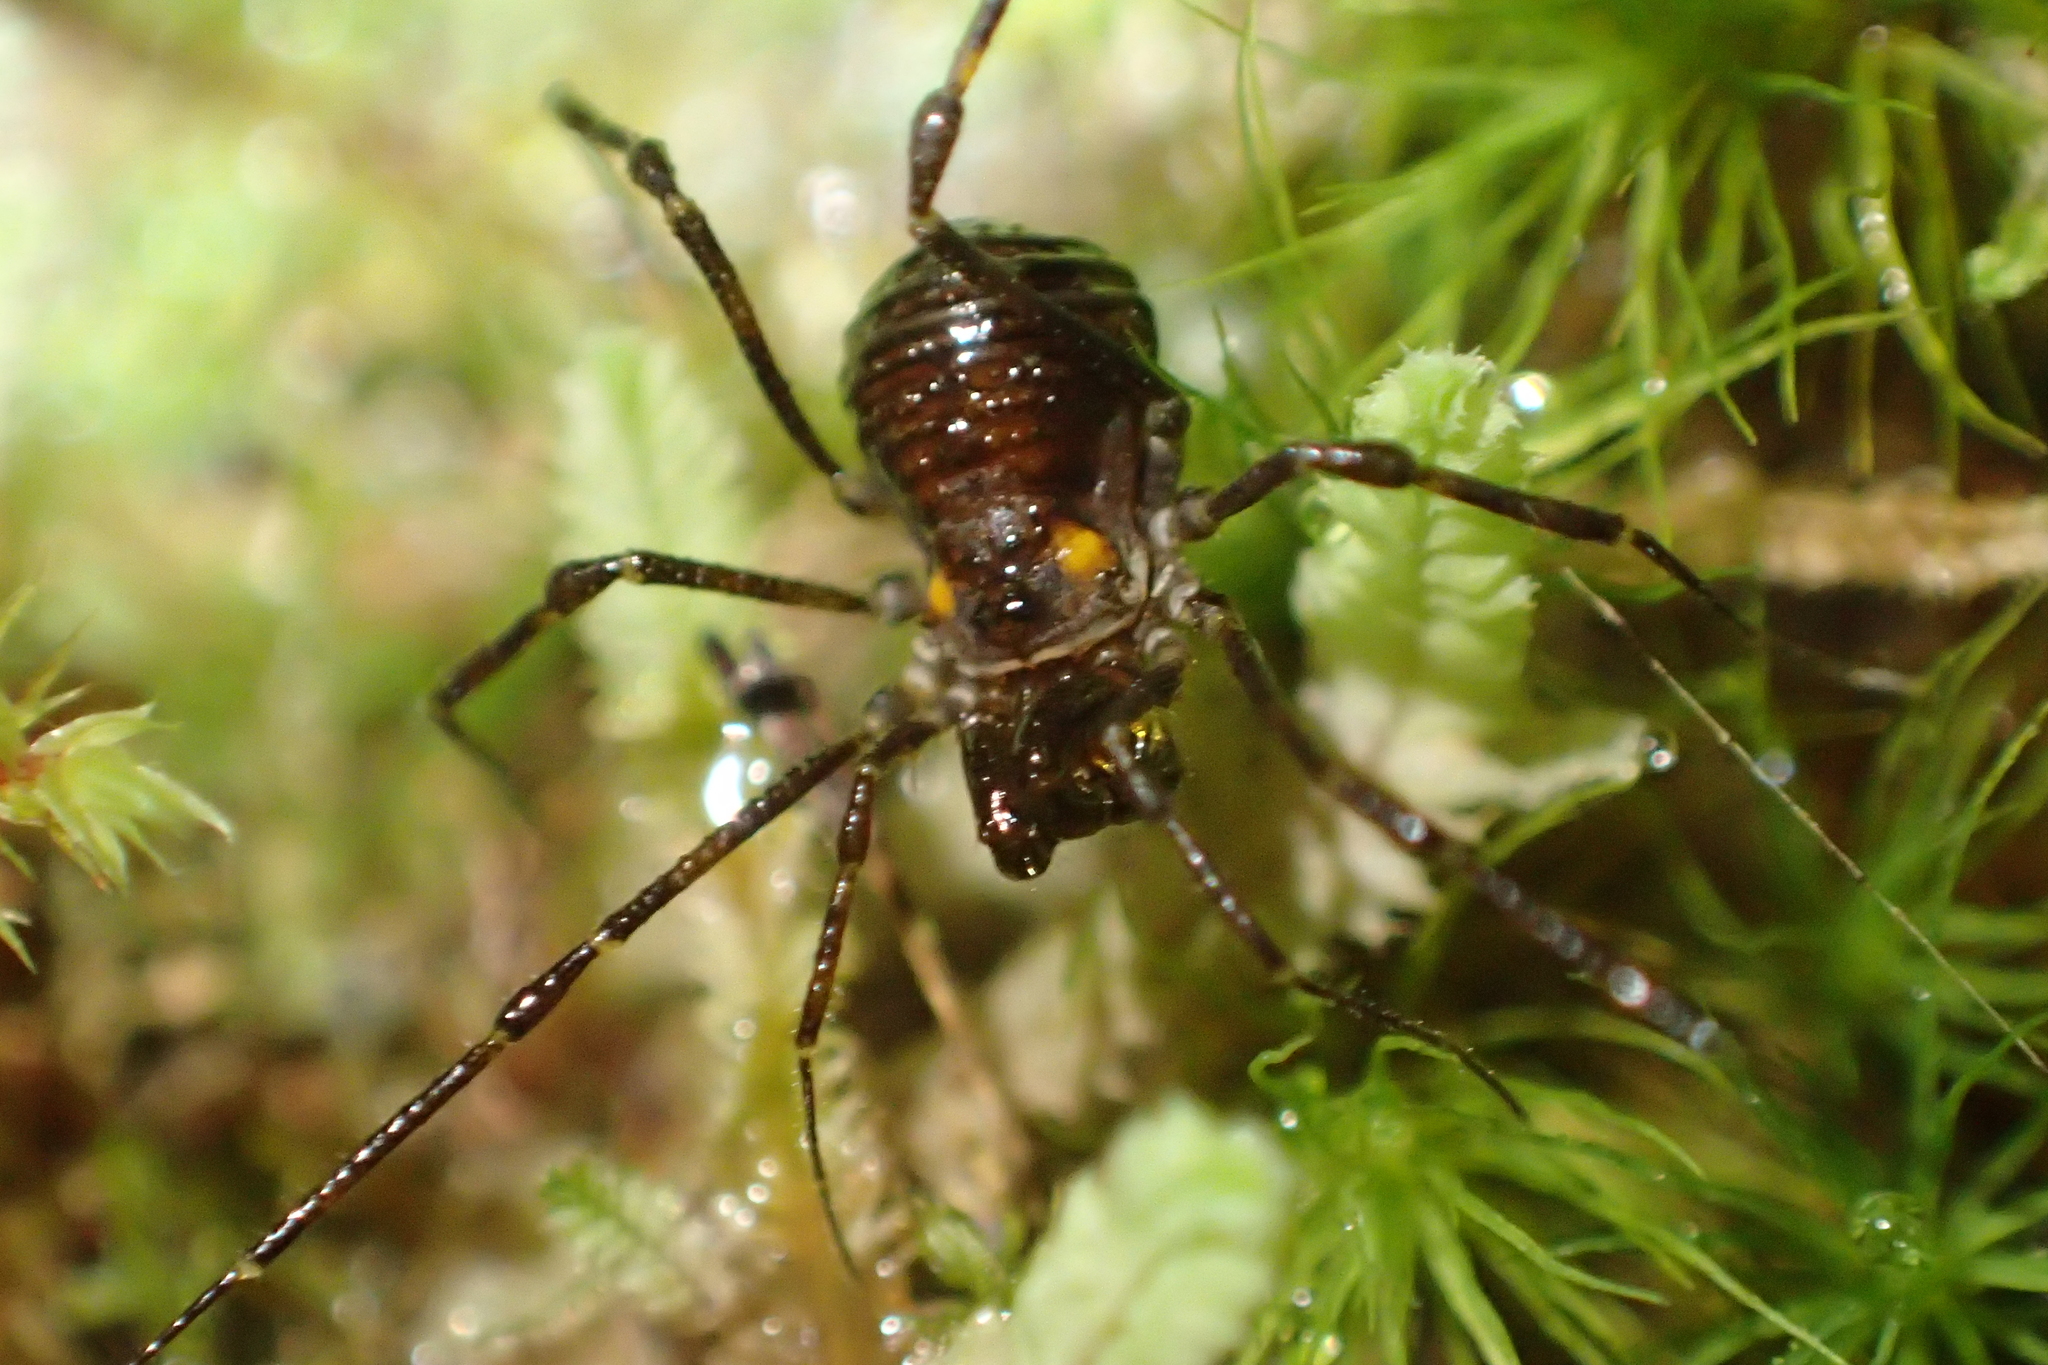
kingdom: Animalia
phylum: Arthropoda
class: Arachnida
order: Opiliones
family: Triaenonychidae
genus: Hendea
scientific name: Hendea myersi
